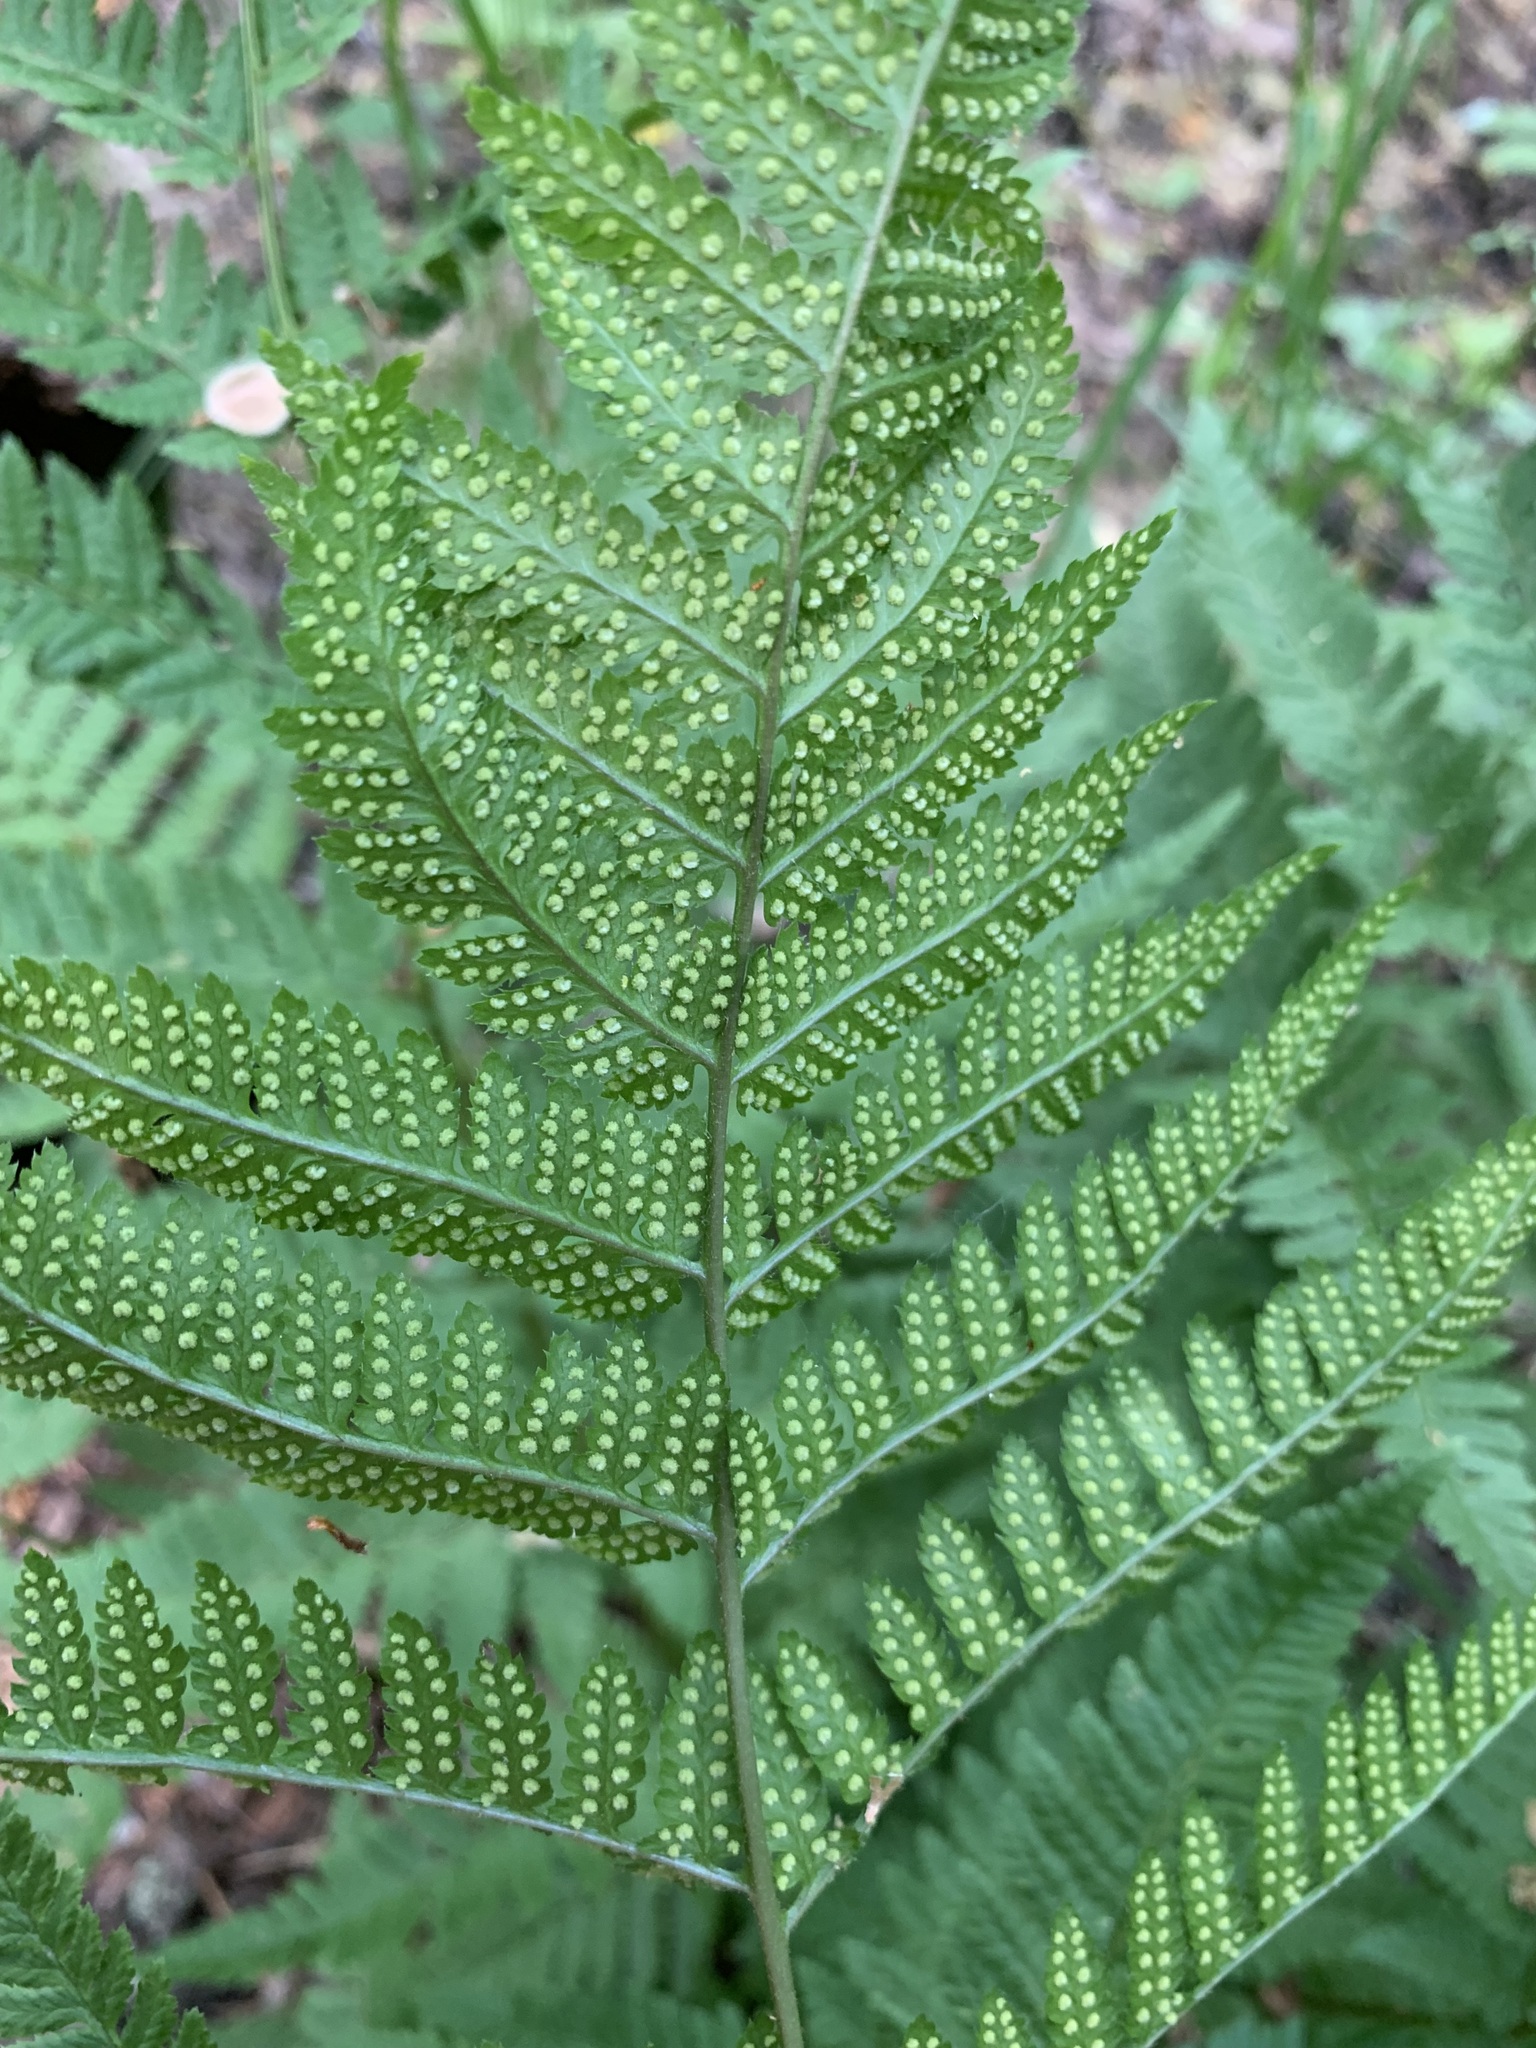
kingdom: Plantae
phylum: Tracheophyta
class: Polypodiopsida
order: Polypodiales
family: Dryopteridaceae
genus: Dryopteris
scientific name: Dryopteris carthusiana
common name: Narrow buckler-fern
